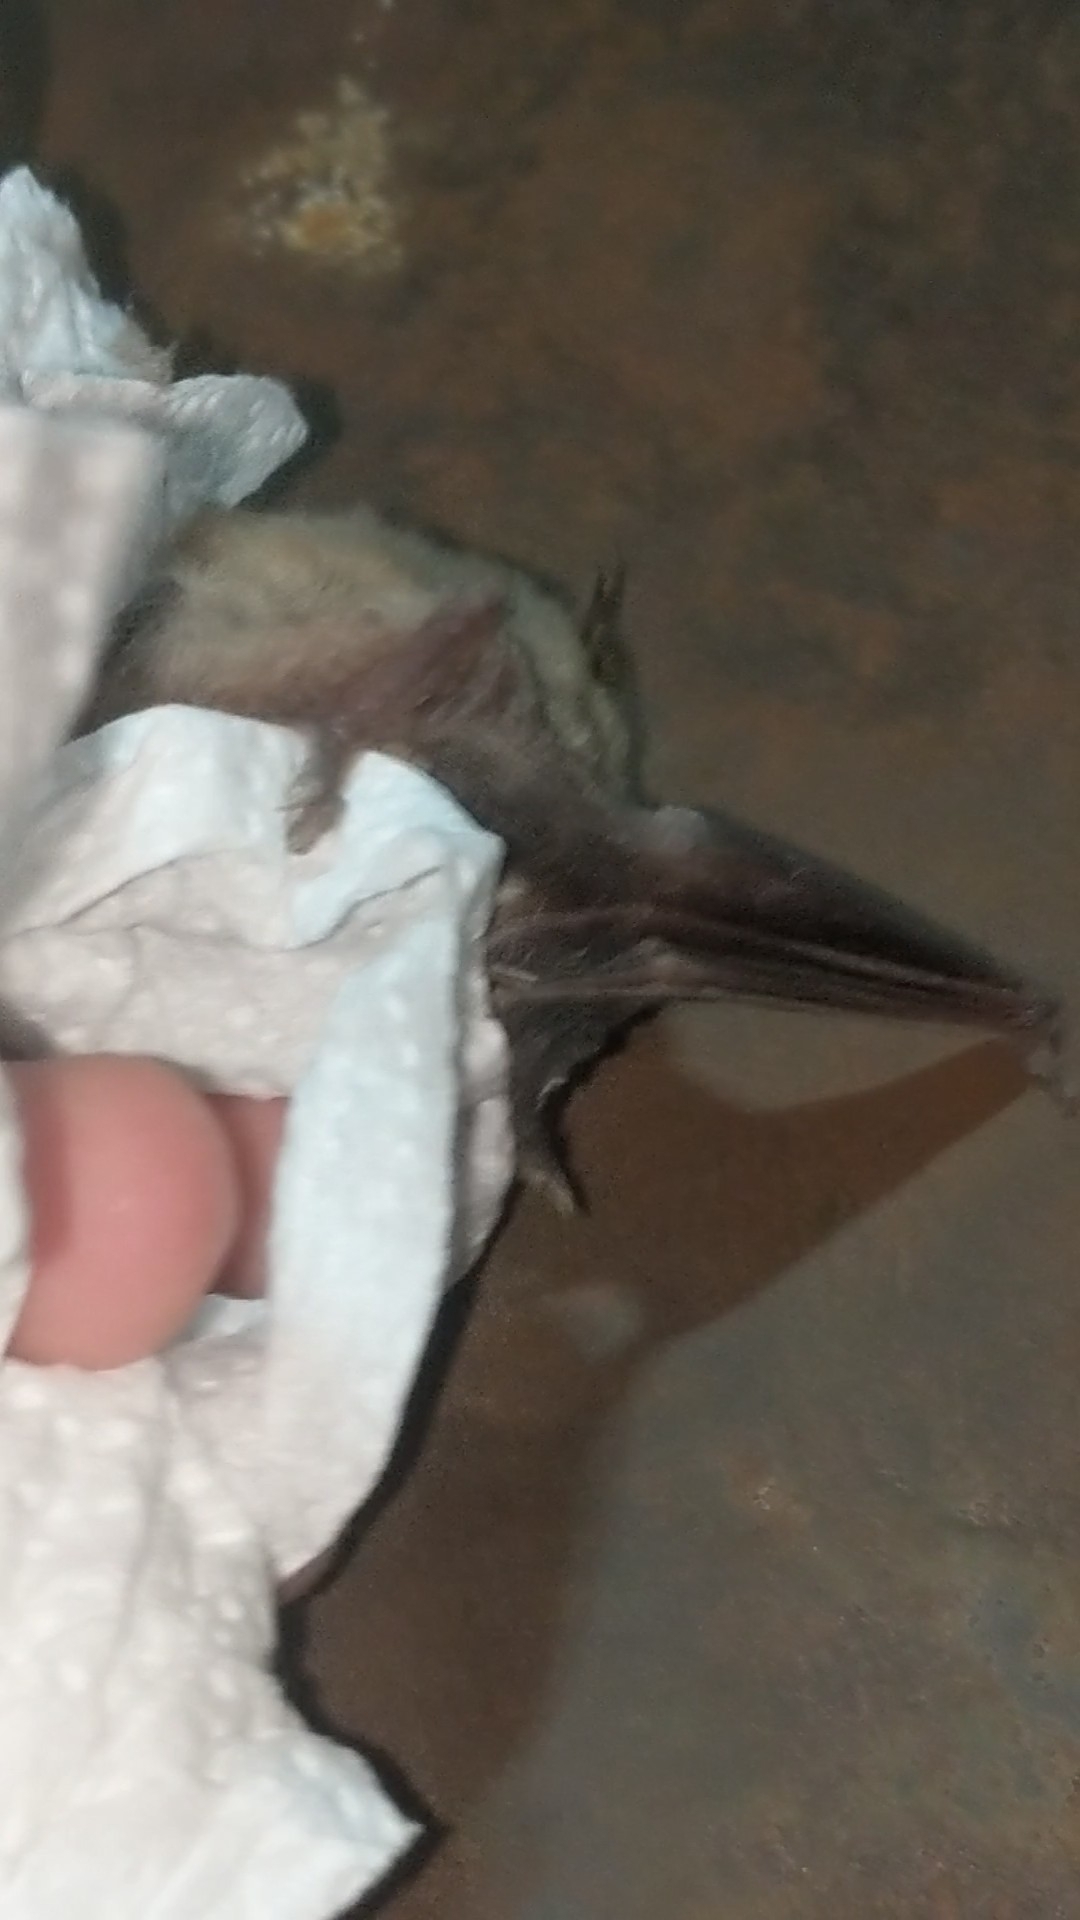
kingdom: Animalia
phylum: Chordata
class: Mammalia
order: Chiroptera
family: Vespertilionidae
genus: Pipistrellus
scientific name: Pipistrellus kuhlii
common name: Kuhl's pipistrelle
